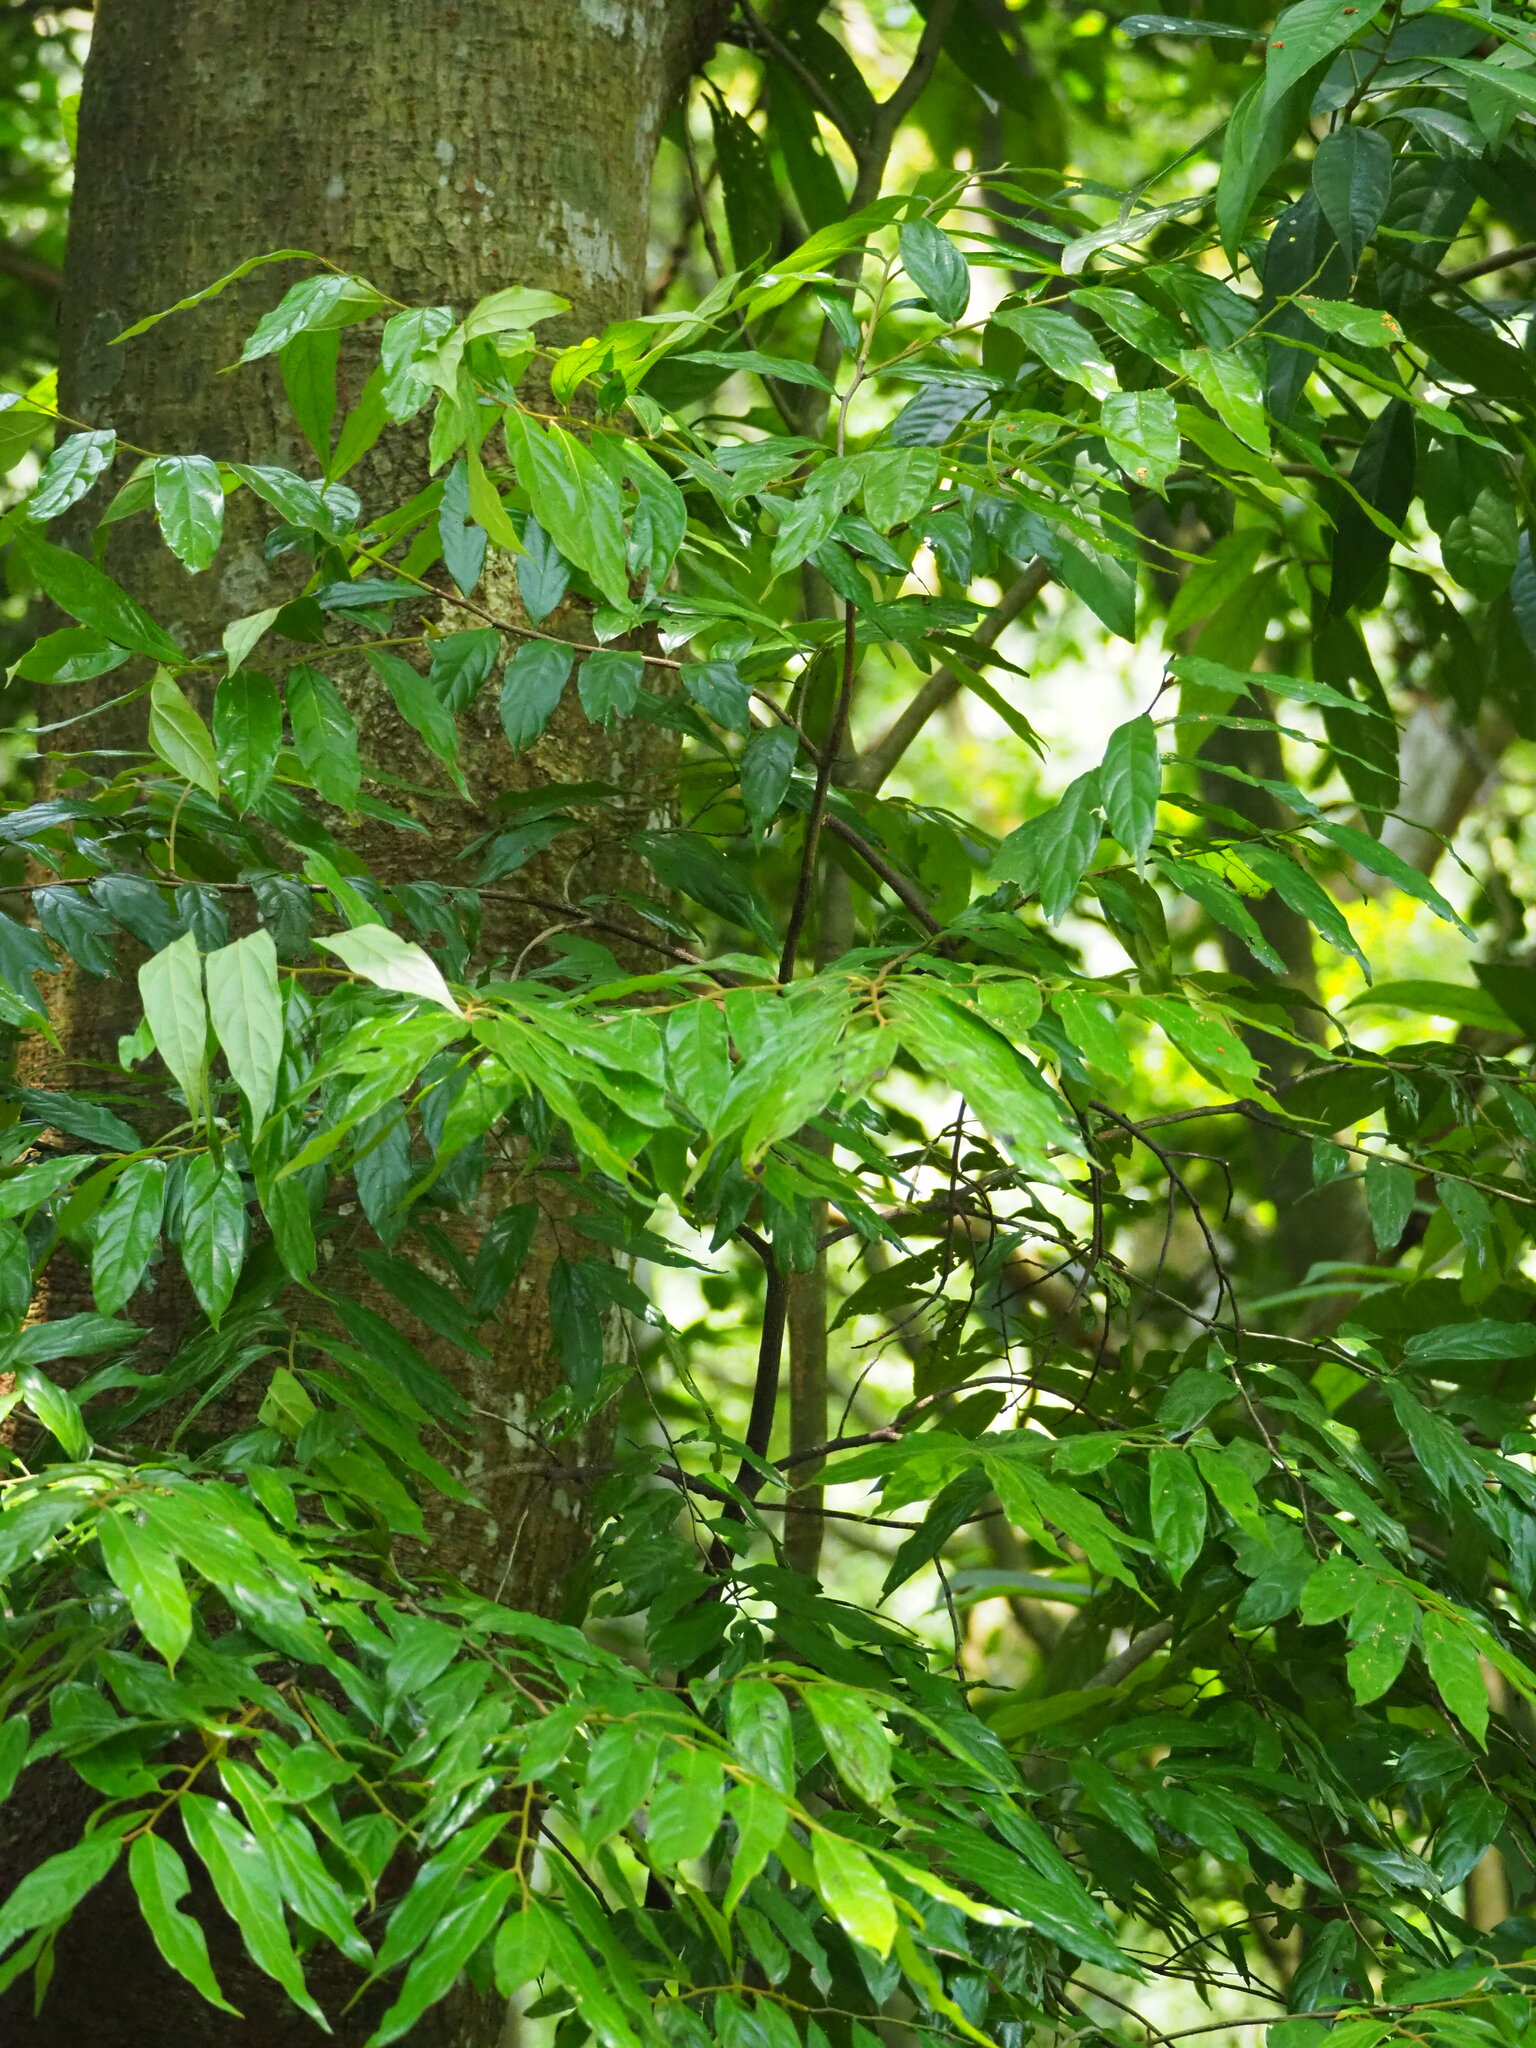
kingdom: Plantae
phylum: Tracheophyta
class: Magnoliopsida
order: Ericales
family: Ebenaceae
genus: Diospyros
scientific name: Diospyros eriantha
